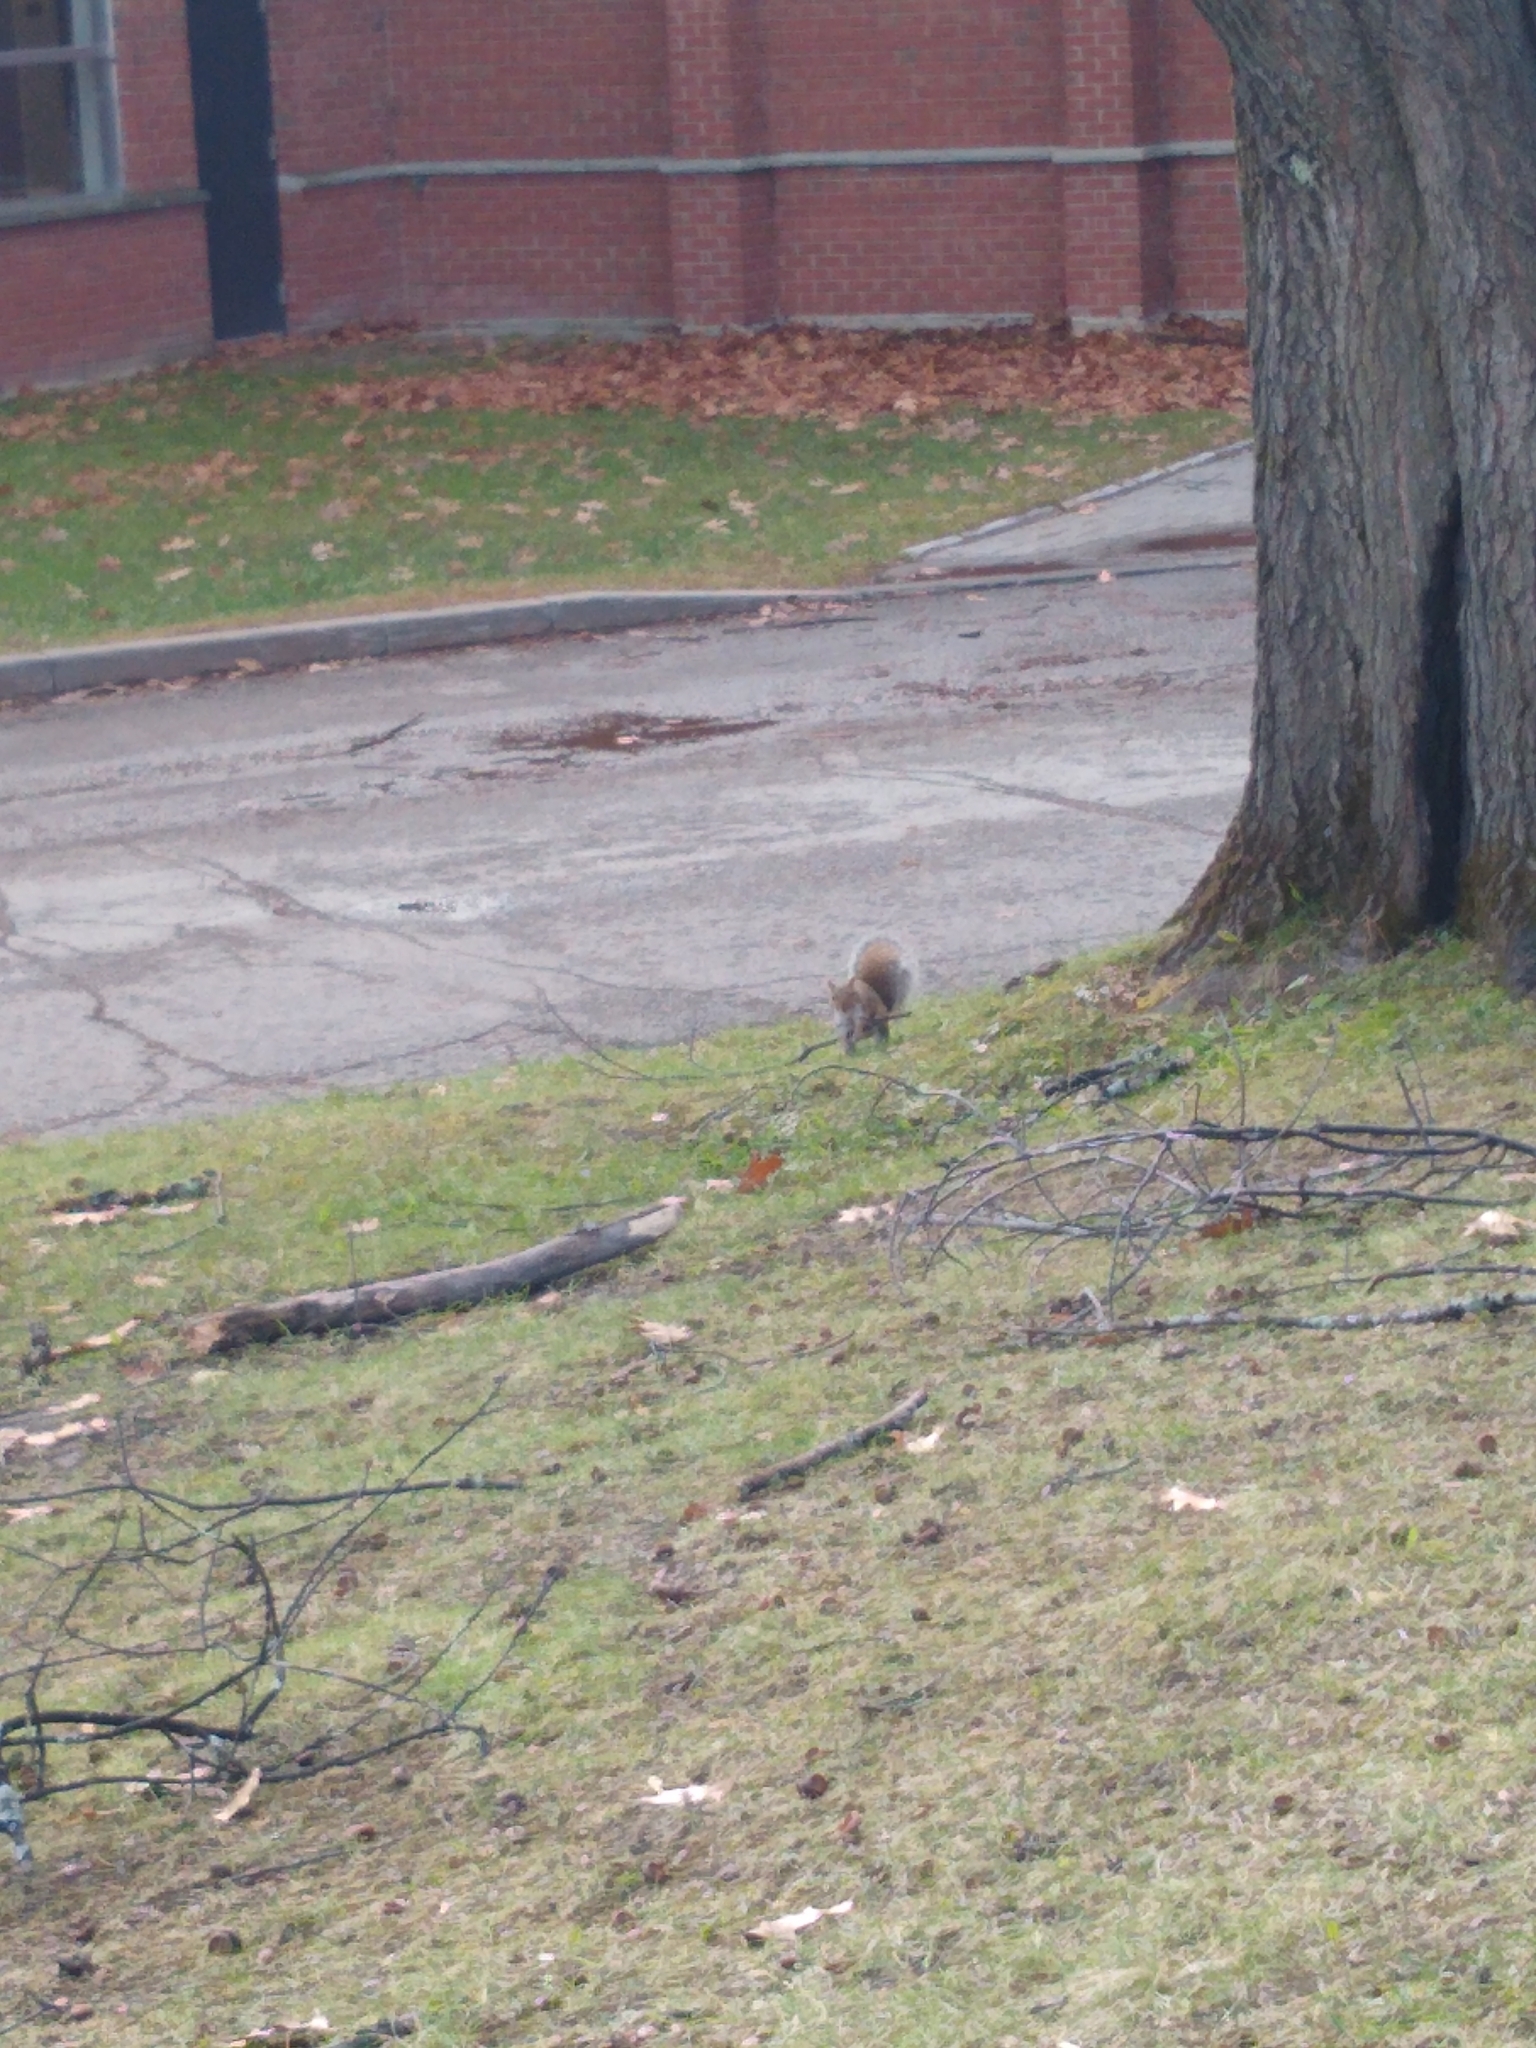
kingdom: Animalia
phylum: Chordata
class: Mammalia
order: Rodentia
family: Sciuridae
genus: Sciurus
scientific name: Sciurus carolinensis
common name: Eastern gray squirrel
